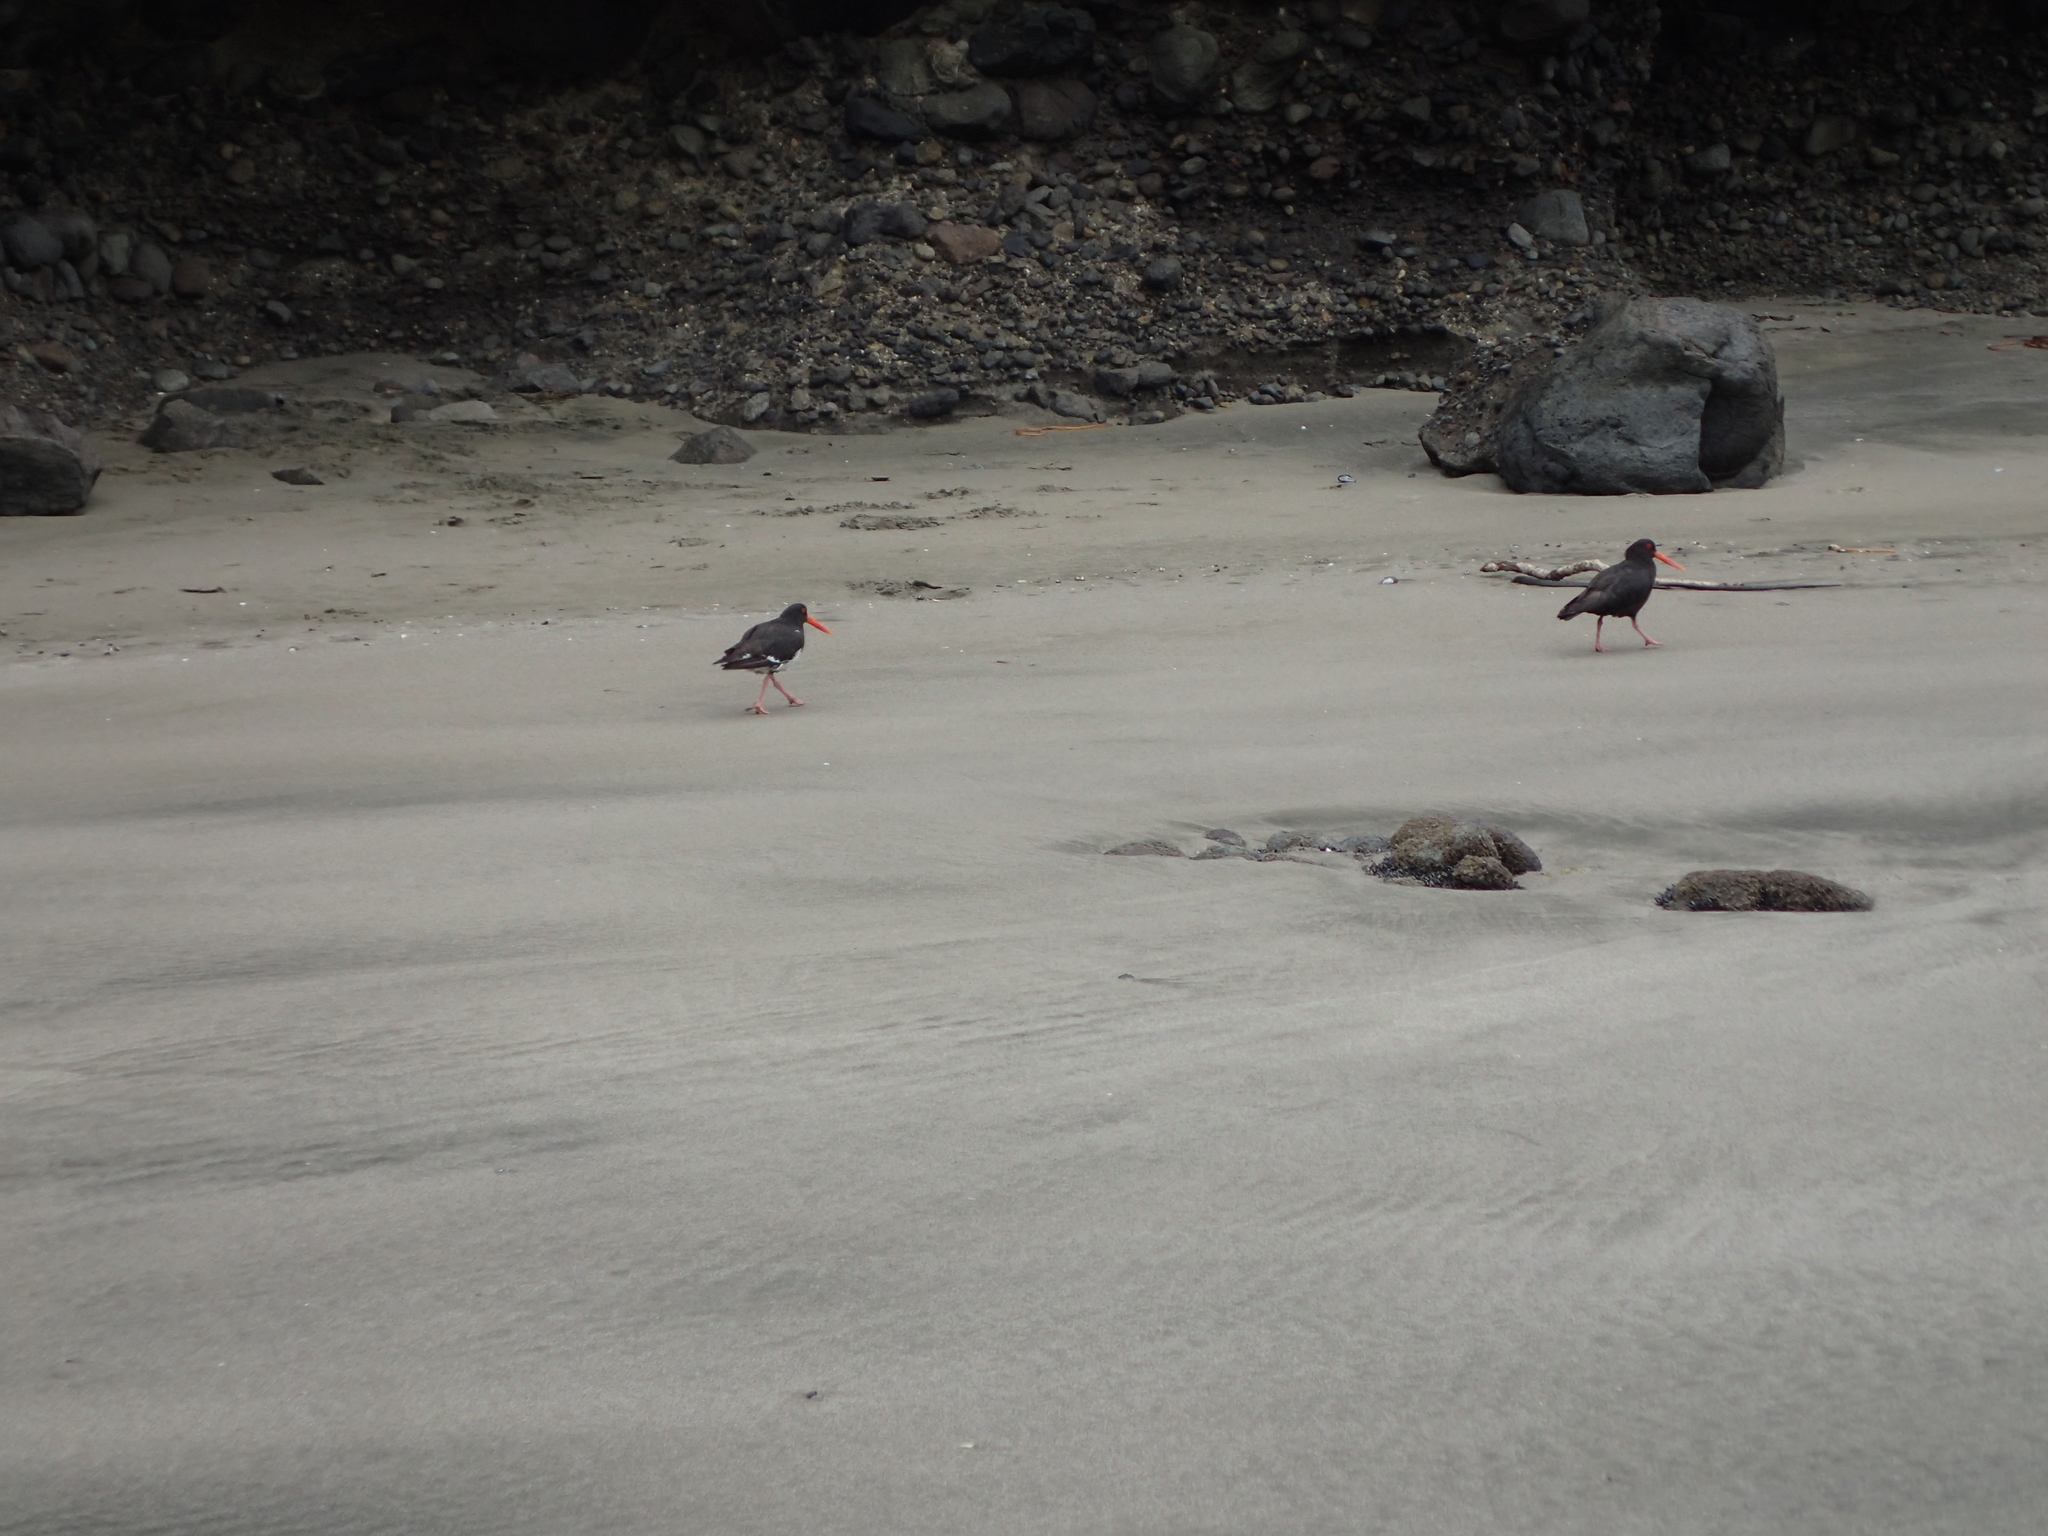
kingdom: Animalia
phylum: Chordata
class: Aves
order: Charadriiformes
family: Haematopodidae
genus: Haematopus
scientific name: Haematopus unicolor
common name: Variable oystercatcher
